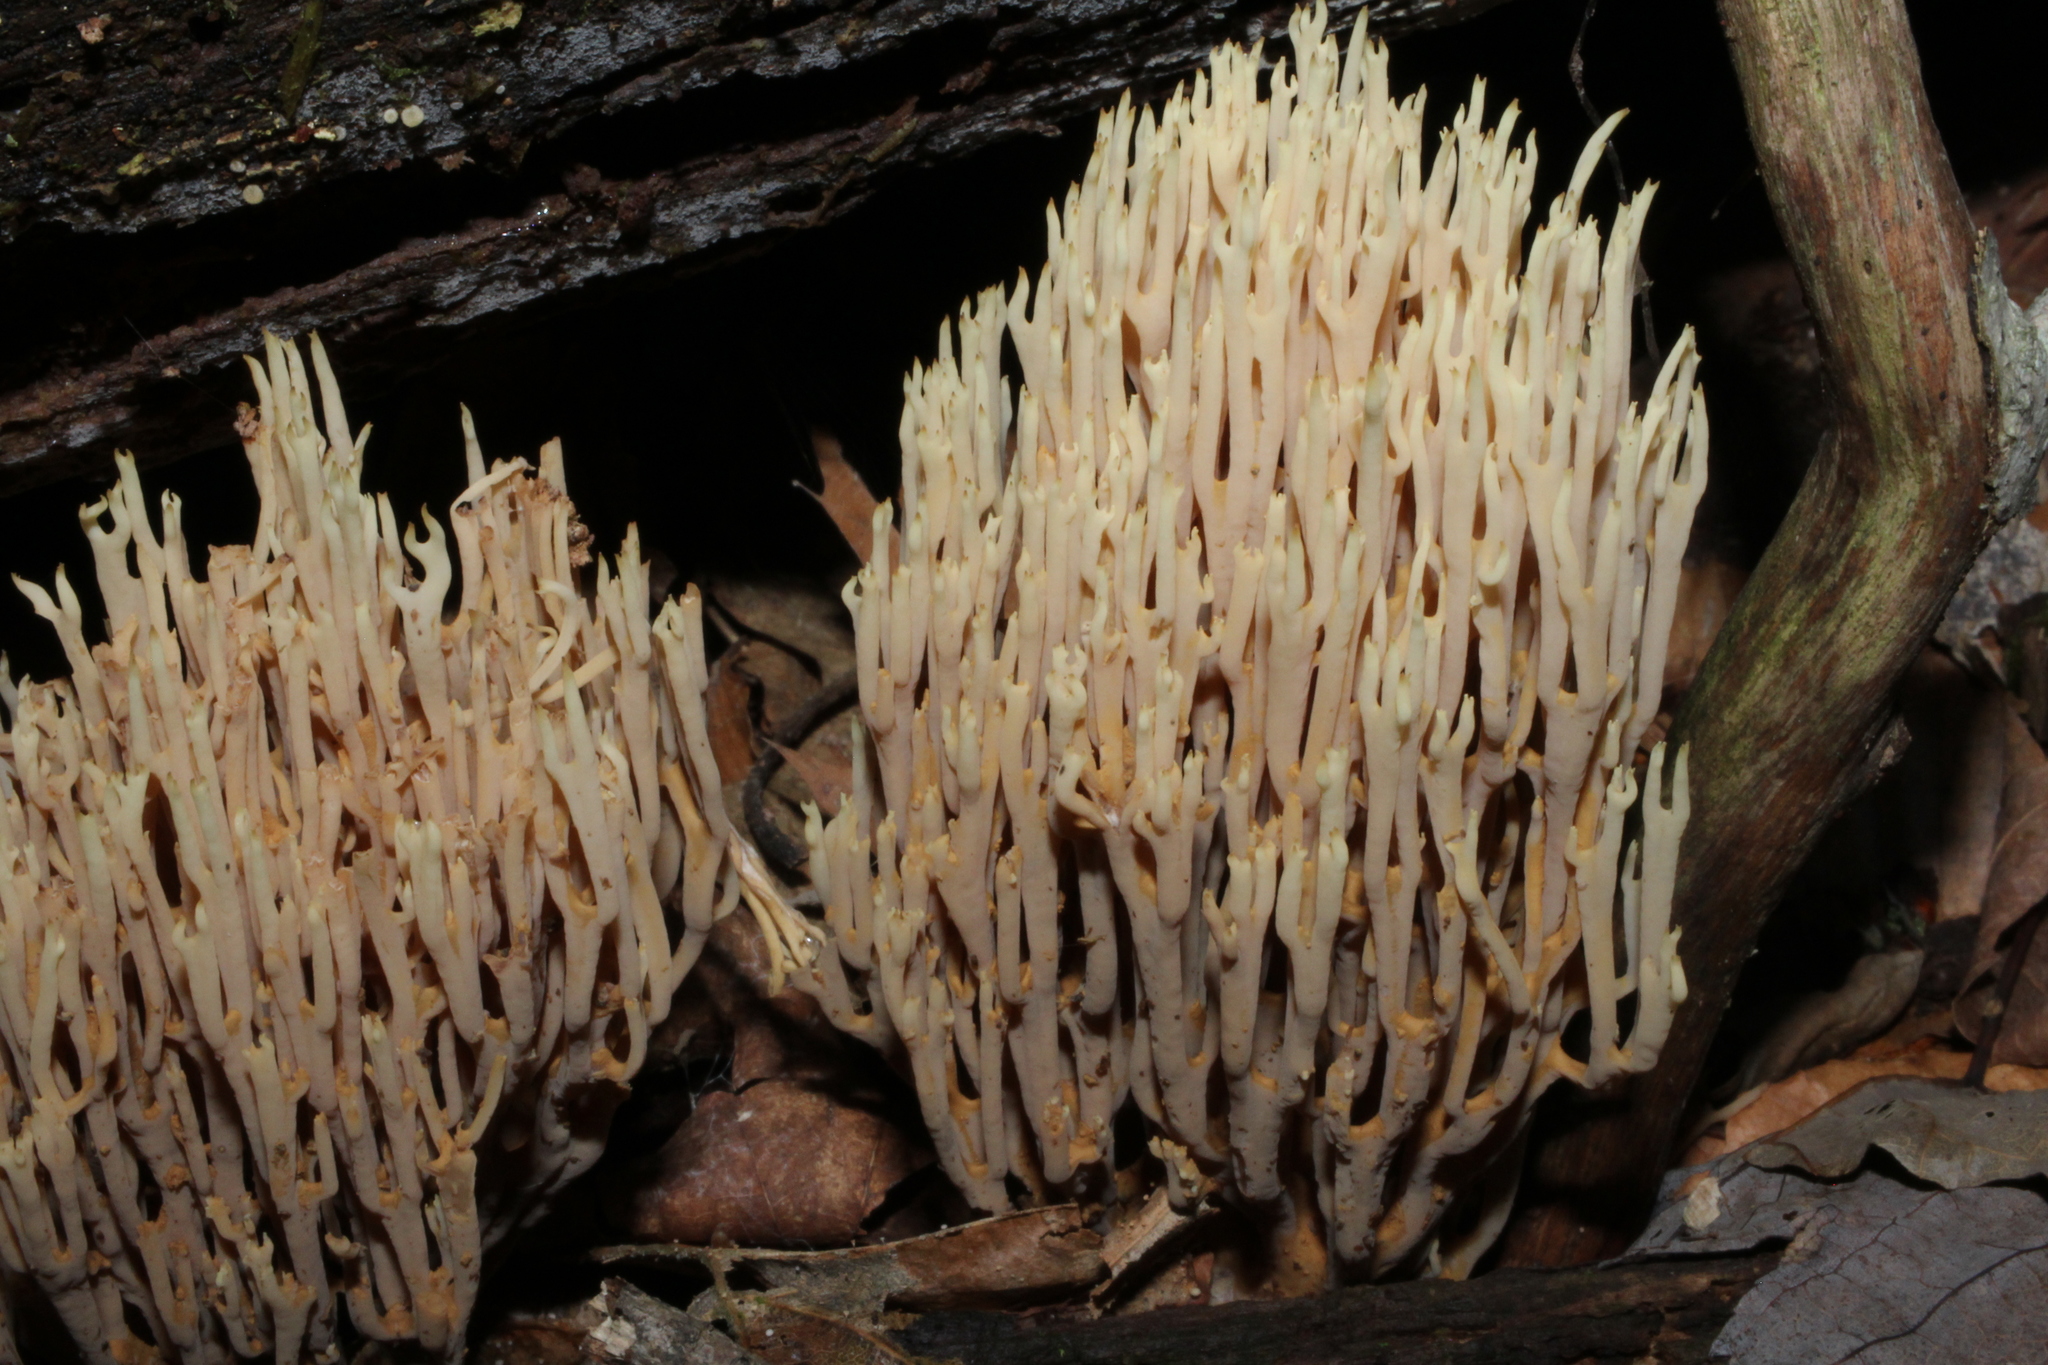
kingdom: Fungi
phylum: Basidiomycota
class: Agaricomycetes
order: Gomphales
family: Gomphaceae
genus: Ramaria
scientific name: Ramaria stricta
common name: Upright coral
